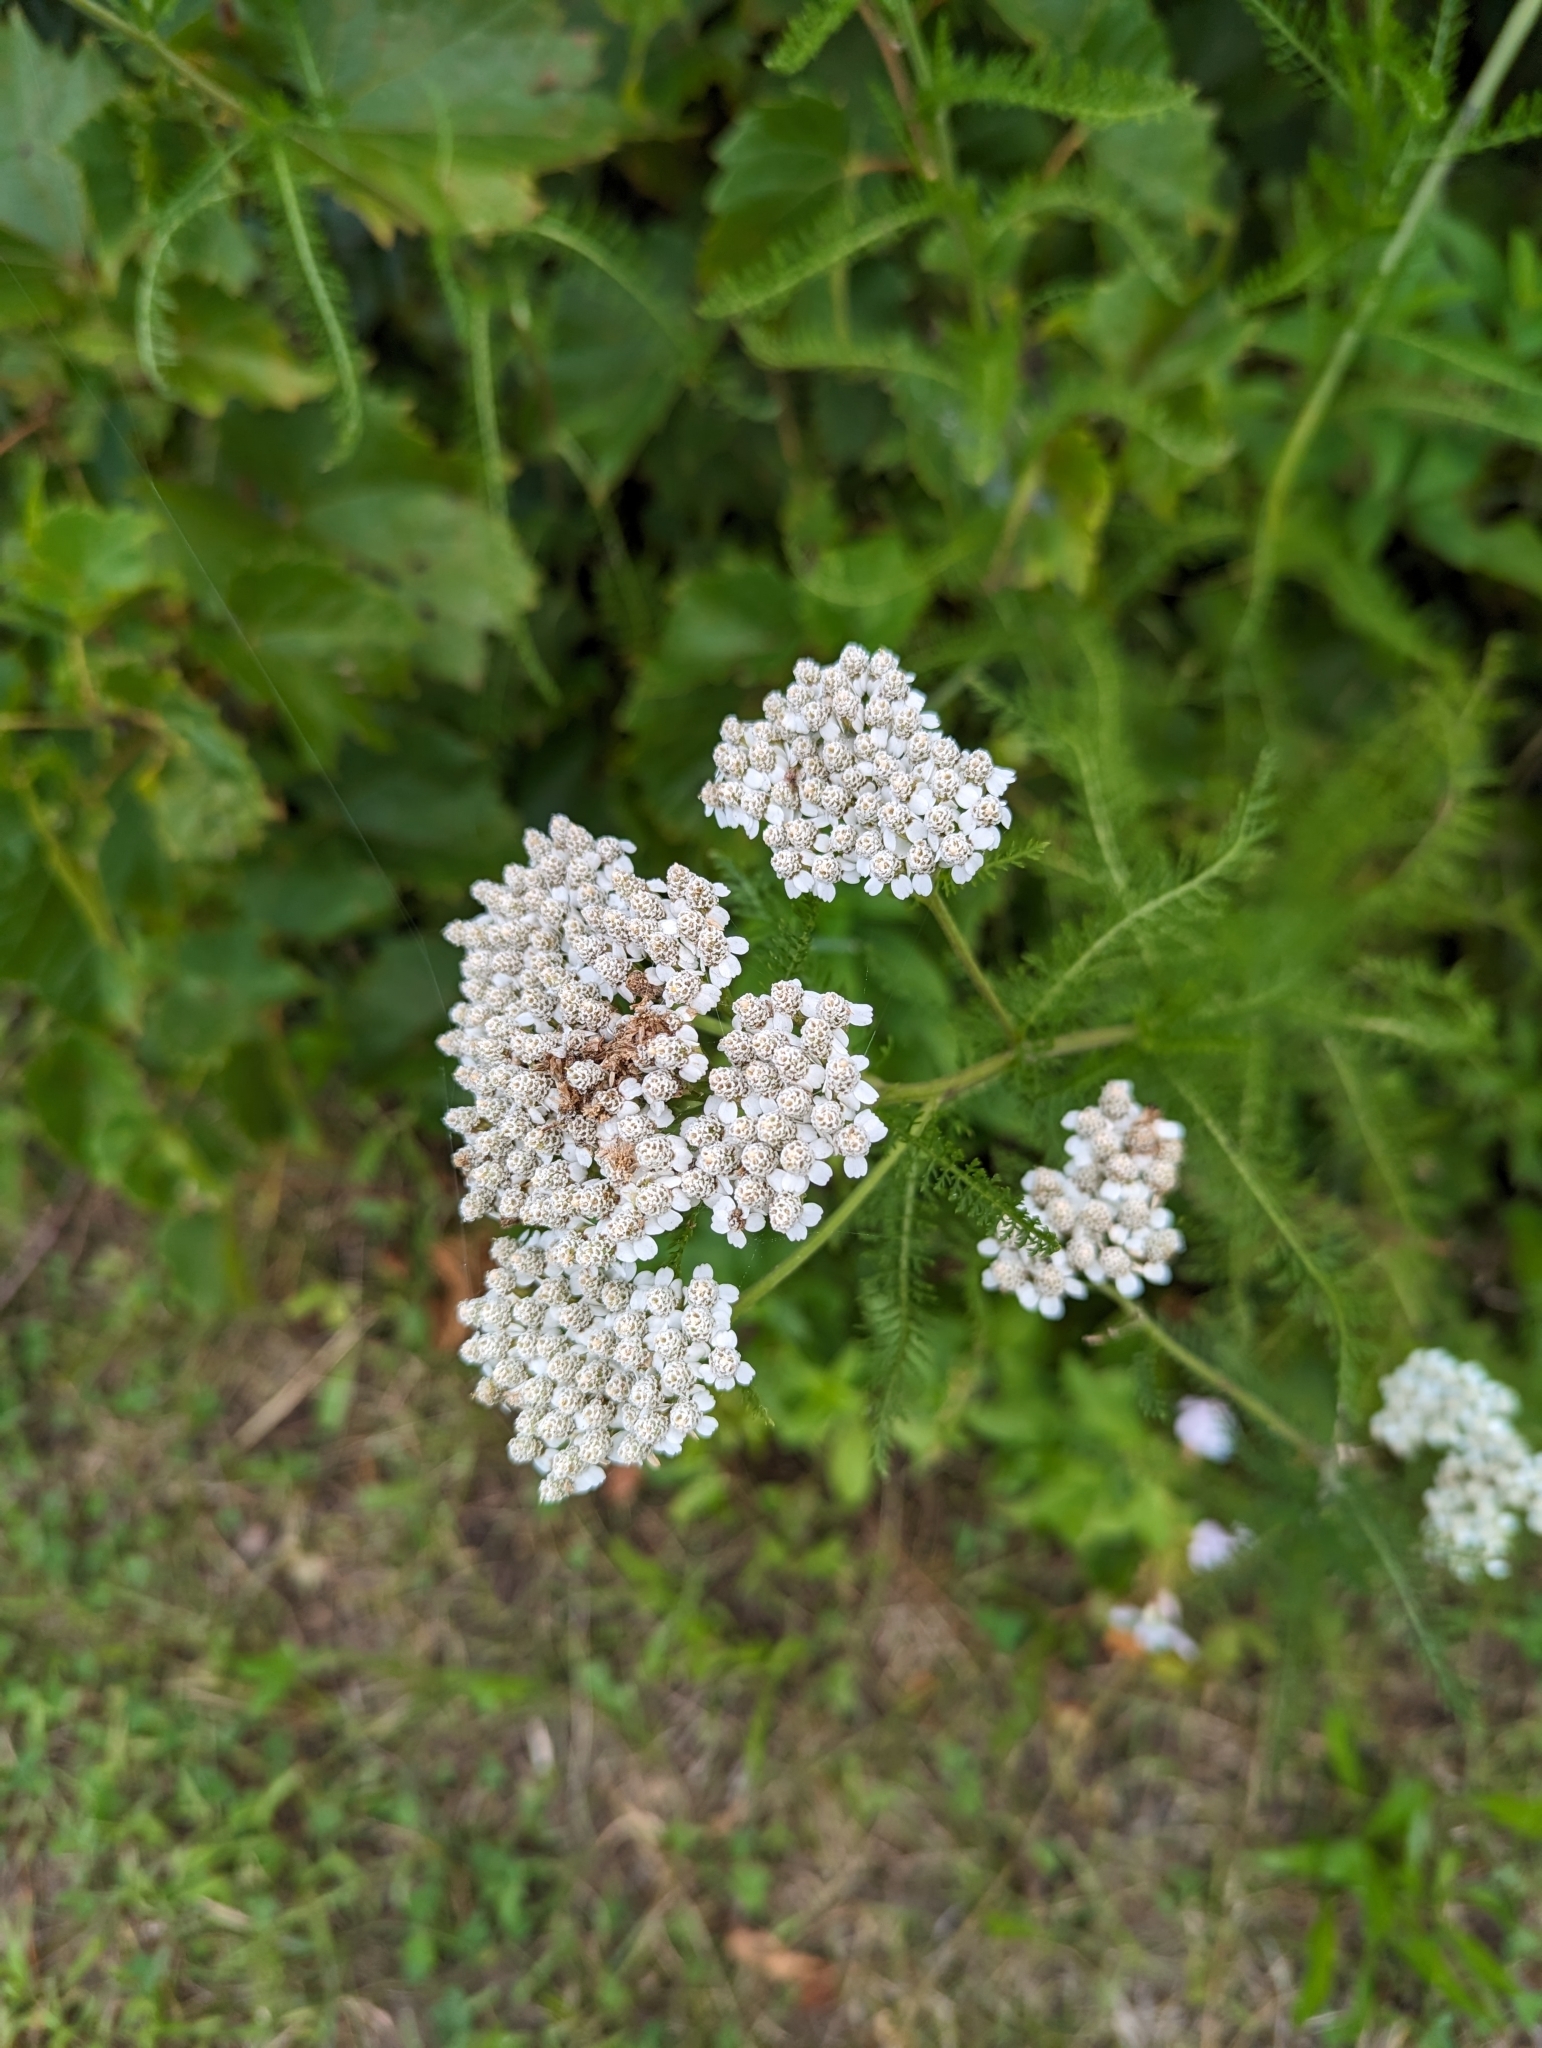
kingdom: Plantae
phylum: Tracheophyta
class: Magnoliopsida
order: Asterales
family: Asteraceae
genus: Achillea
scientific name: Achillea millefolium
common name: Yarrow
